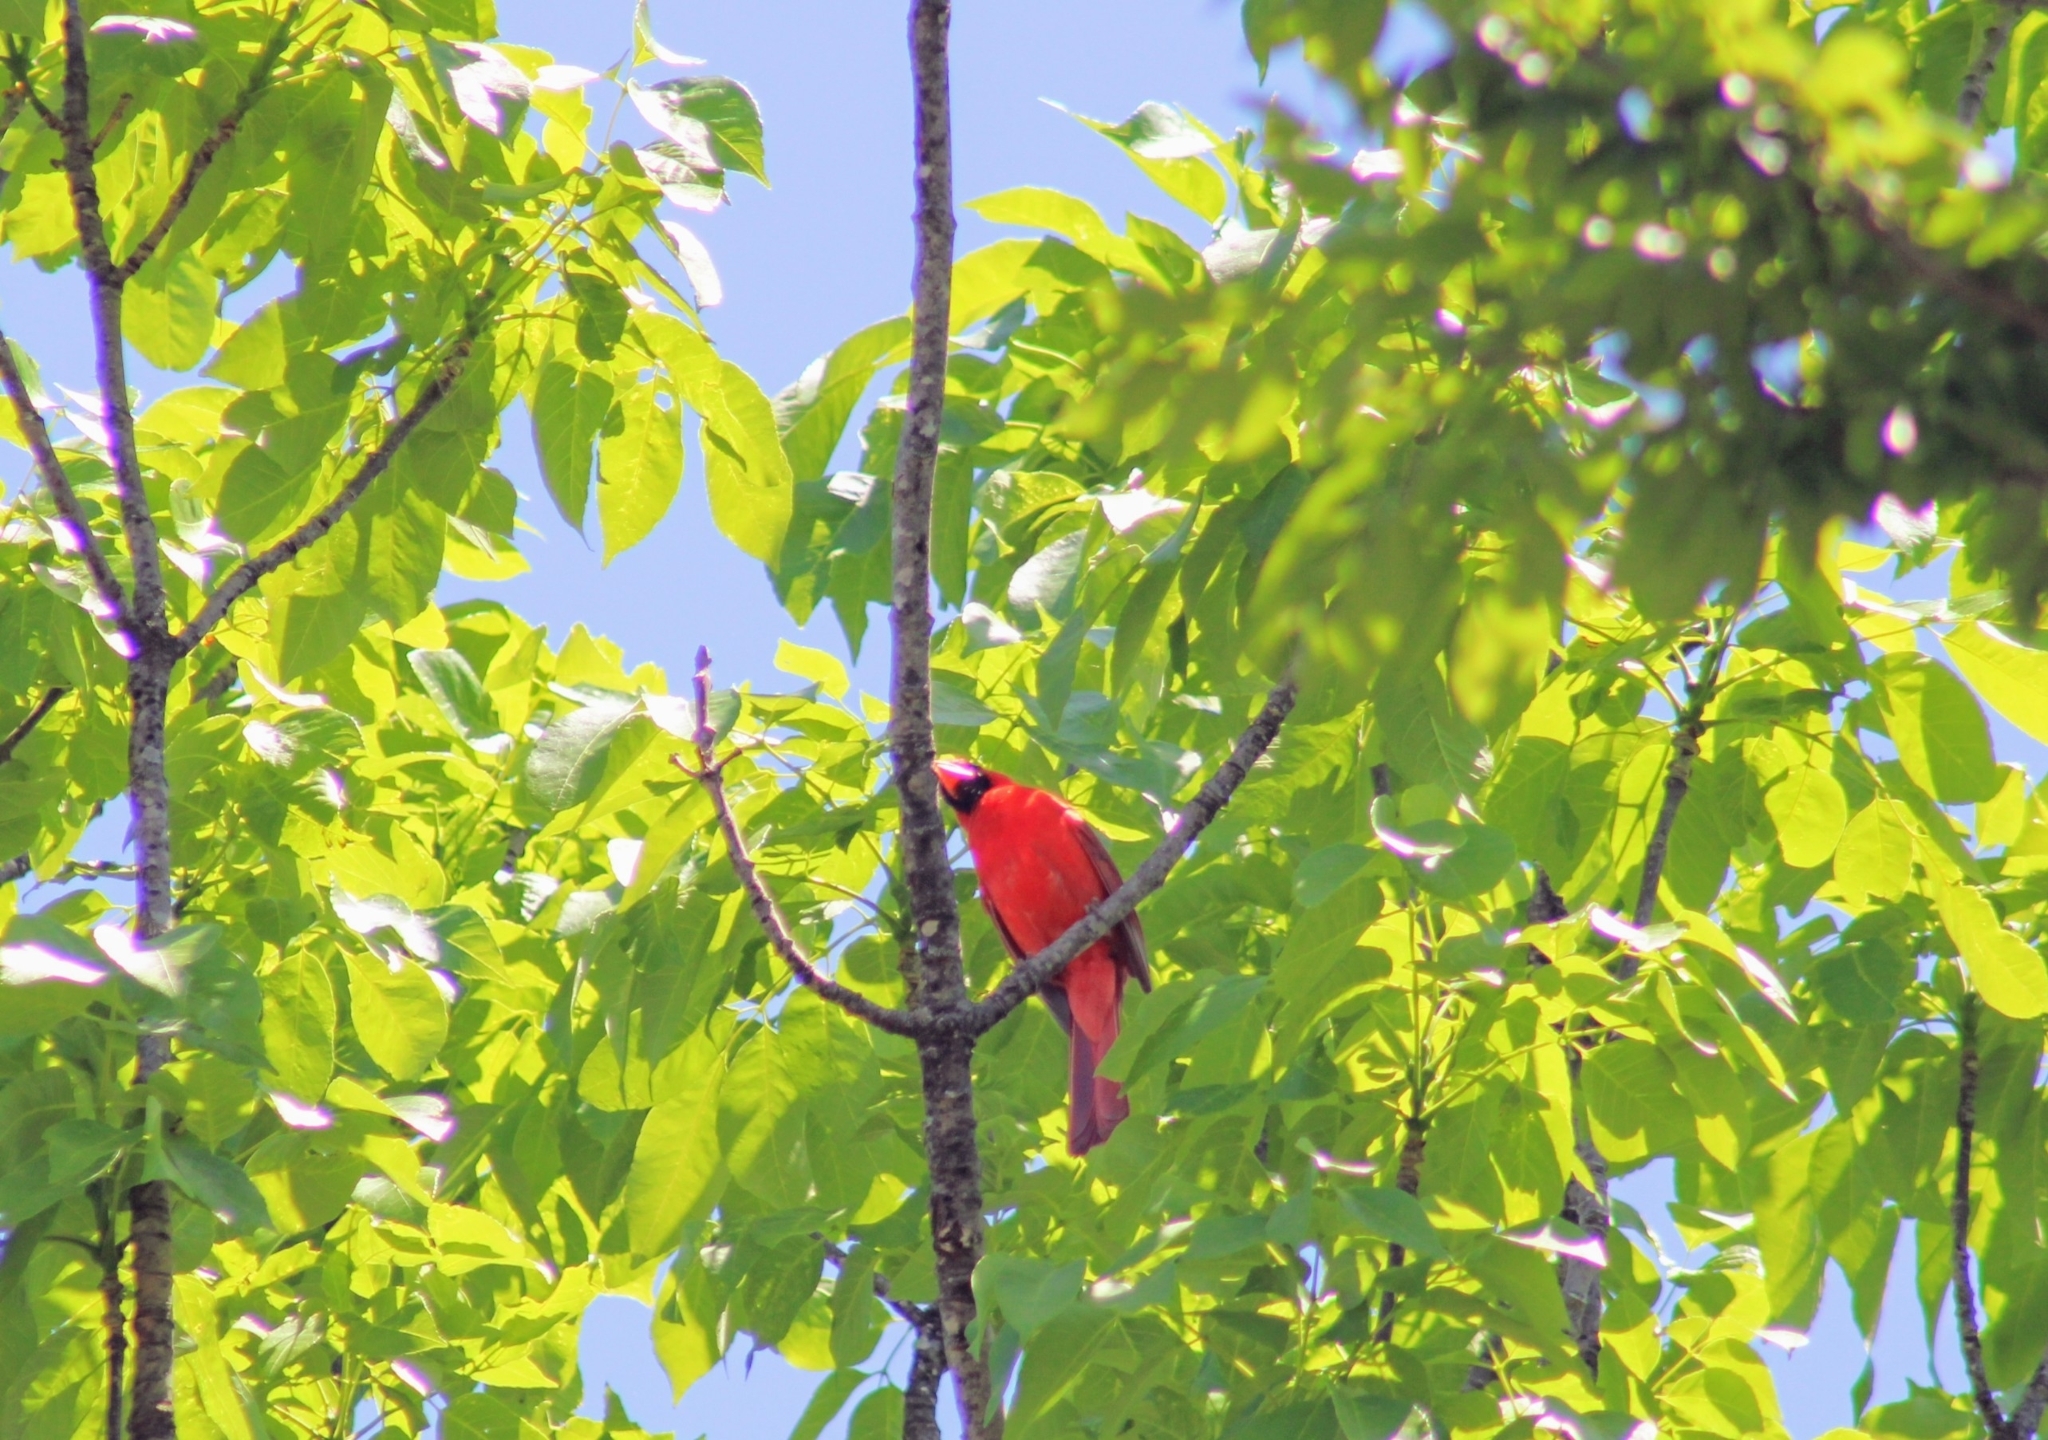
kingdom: Animalia
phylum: Chordata
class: Aves
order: Passeriformes
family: Cardinalidae
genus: Cardinalis
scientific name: Cardinalis cardinalis
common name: Northern cardinal
